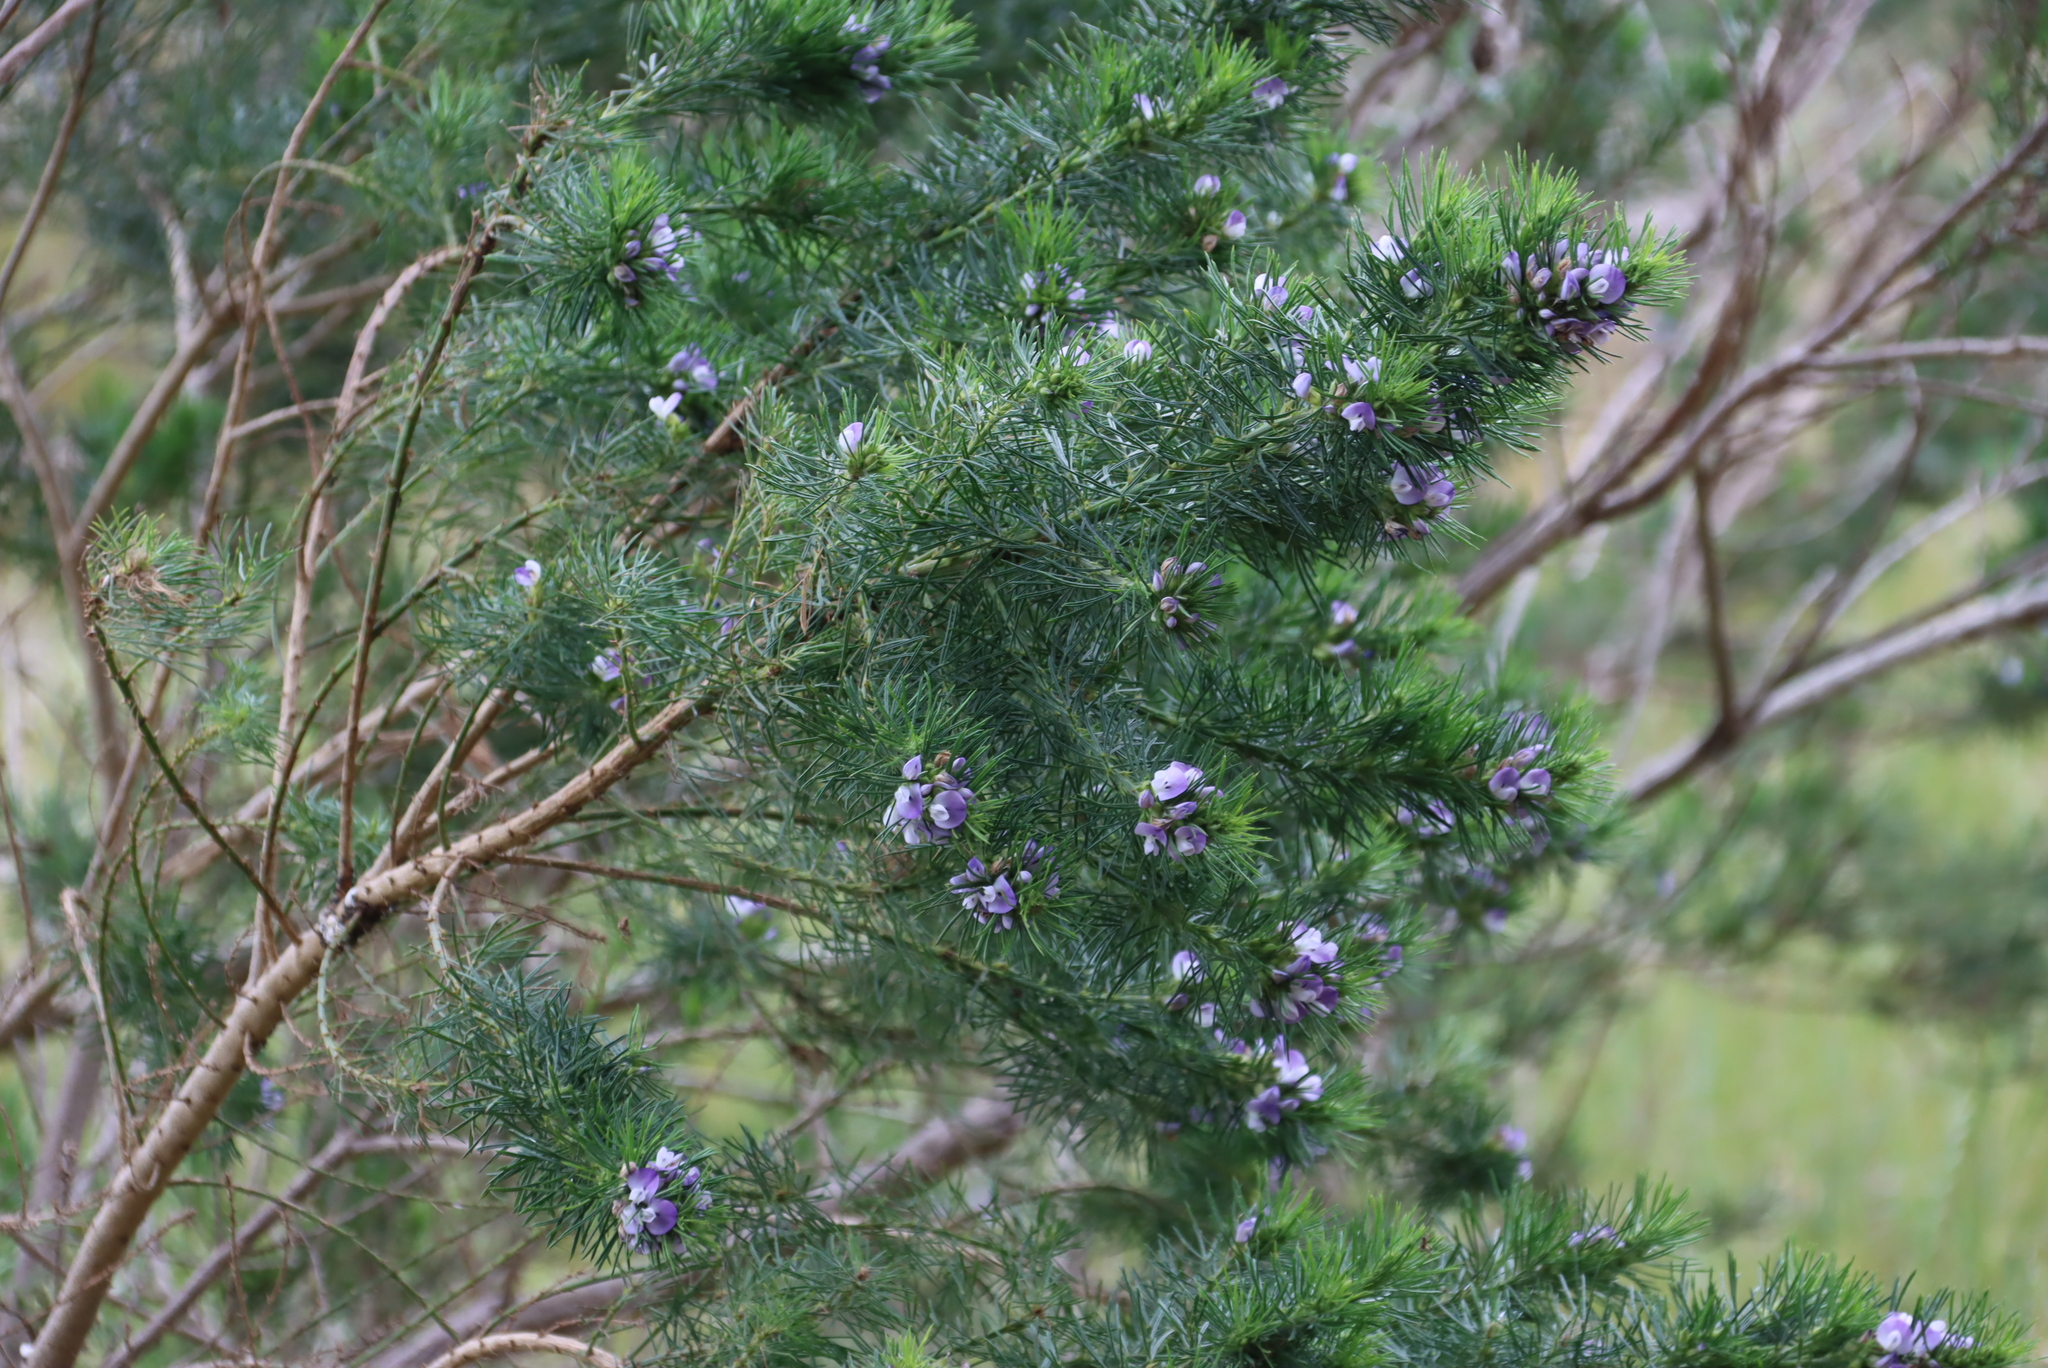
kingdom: Plantae
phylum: Tracheophyta
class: Magnoliopsida
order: Fabales
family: Fabaceae
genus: Psoralea
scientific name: Psoralea pinnata
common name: African scurfpea
